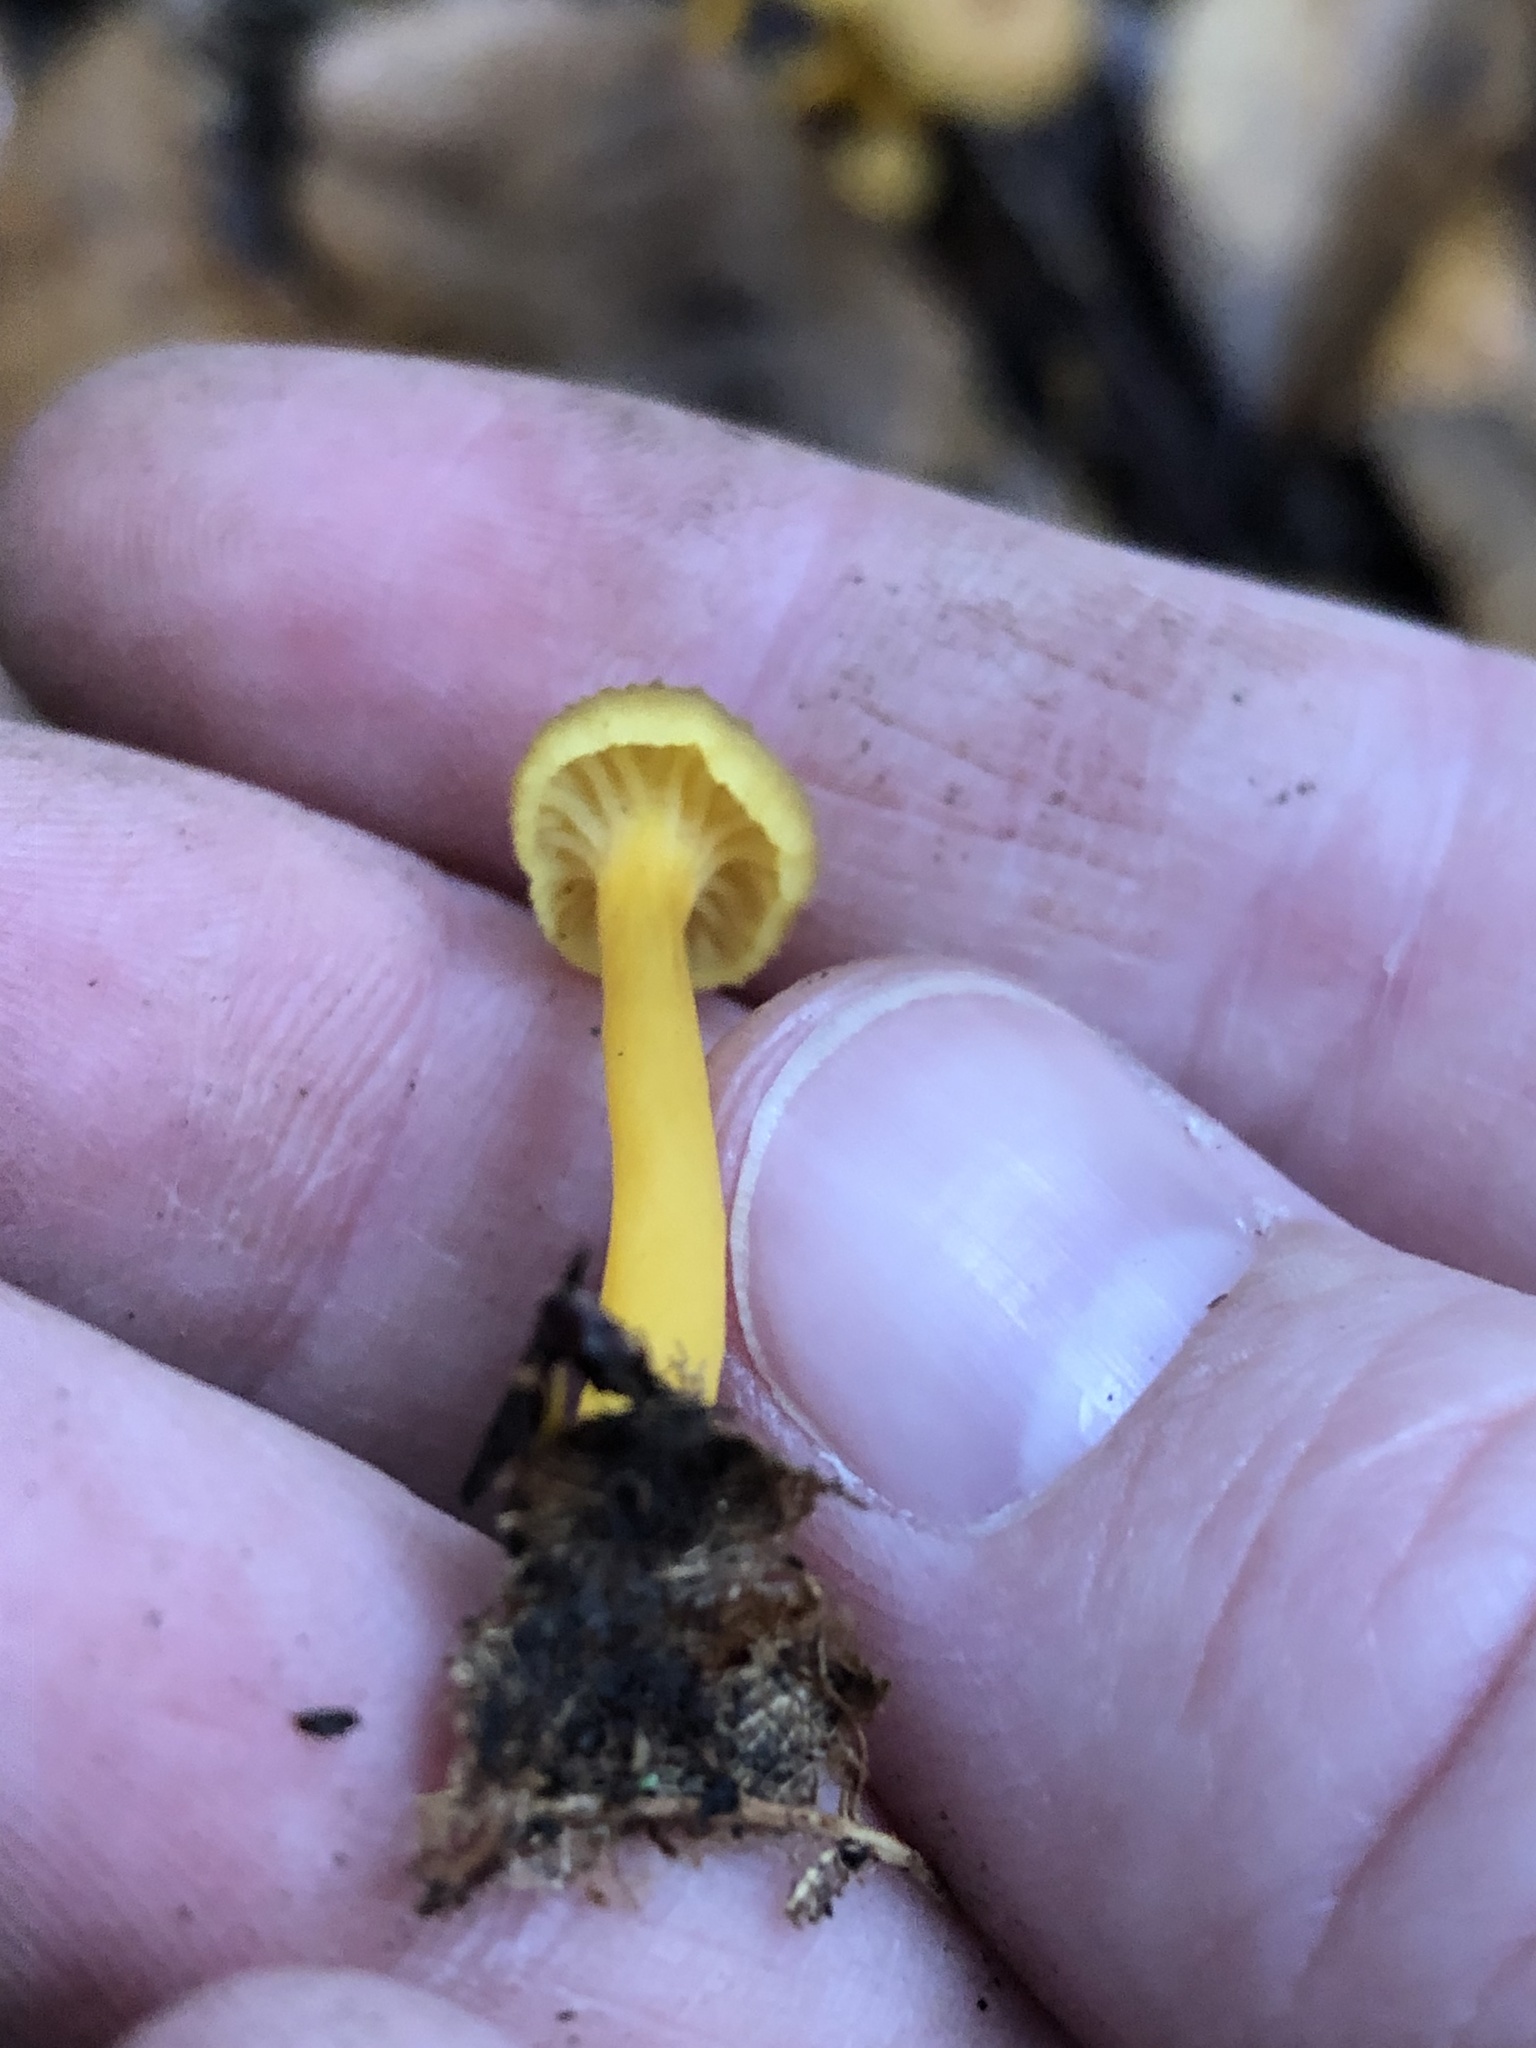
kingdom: Fungi
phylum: Basidiomycota
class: Agaricomycetes
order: Cantharellales
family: Hydnaceae
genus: Craterellus
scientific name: Craterellus tubaeformis
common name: Yellowfoot
